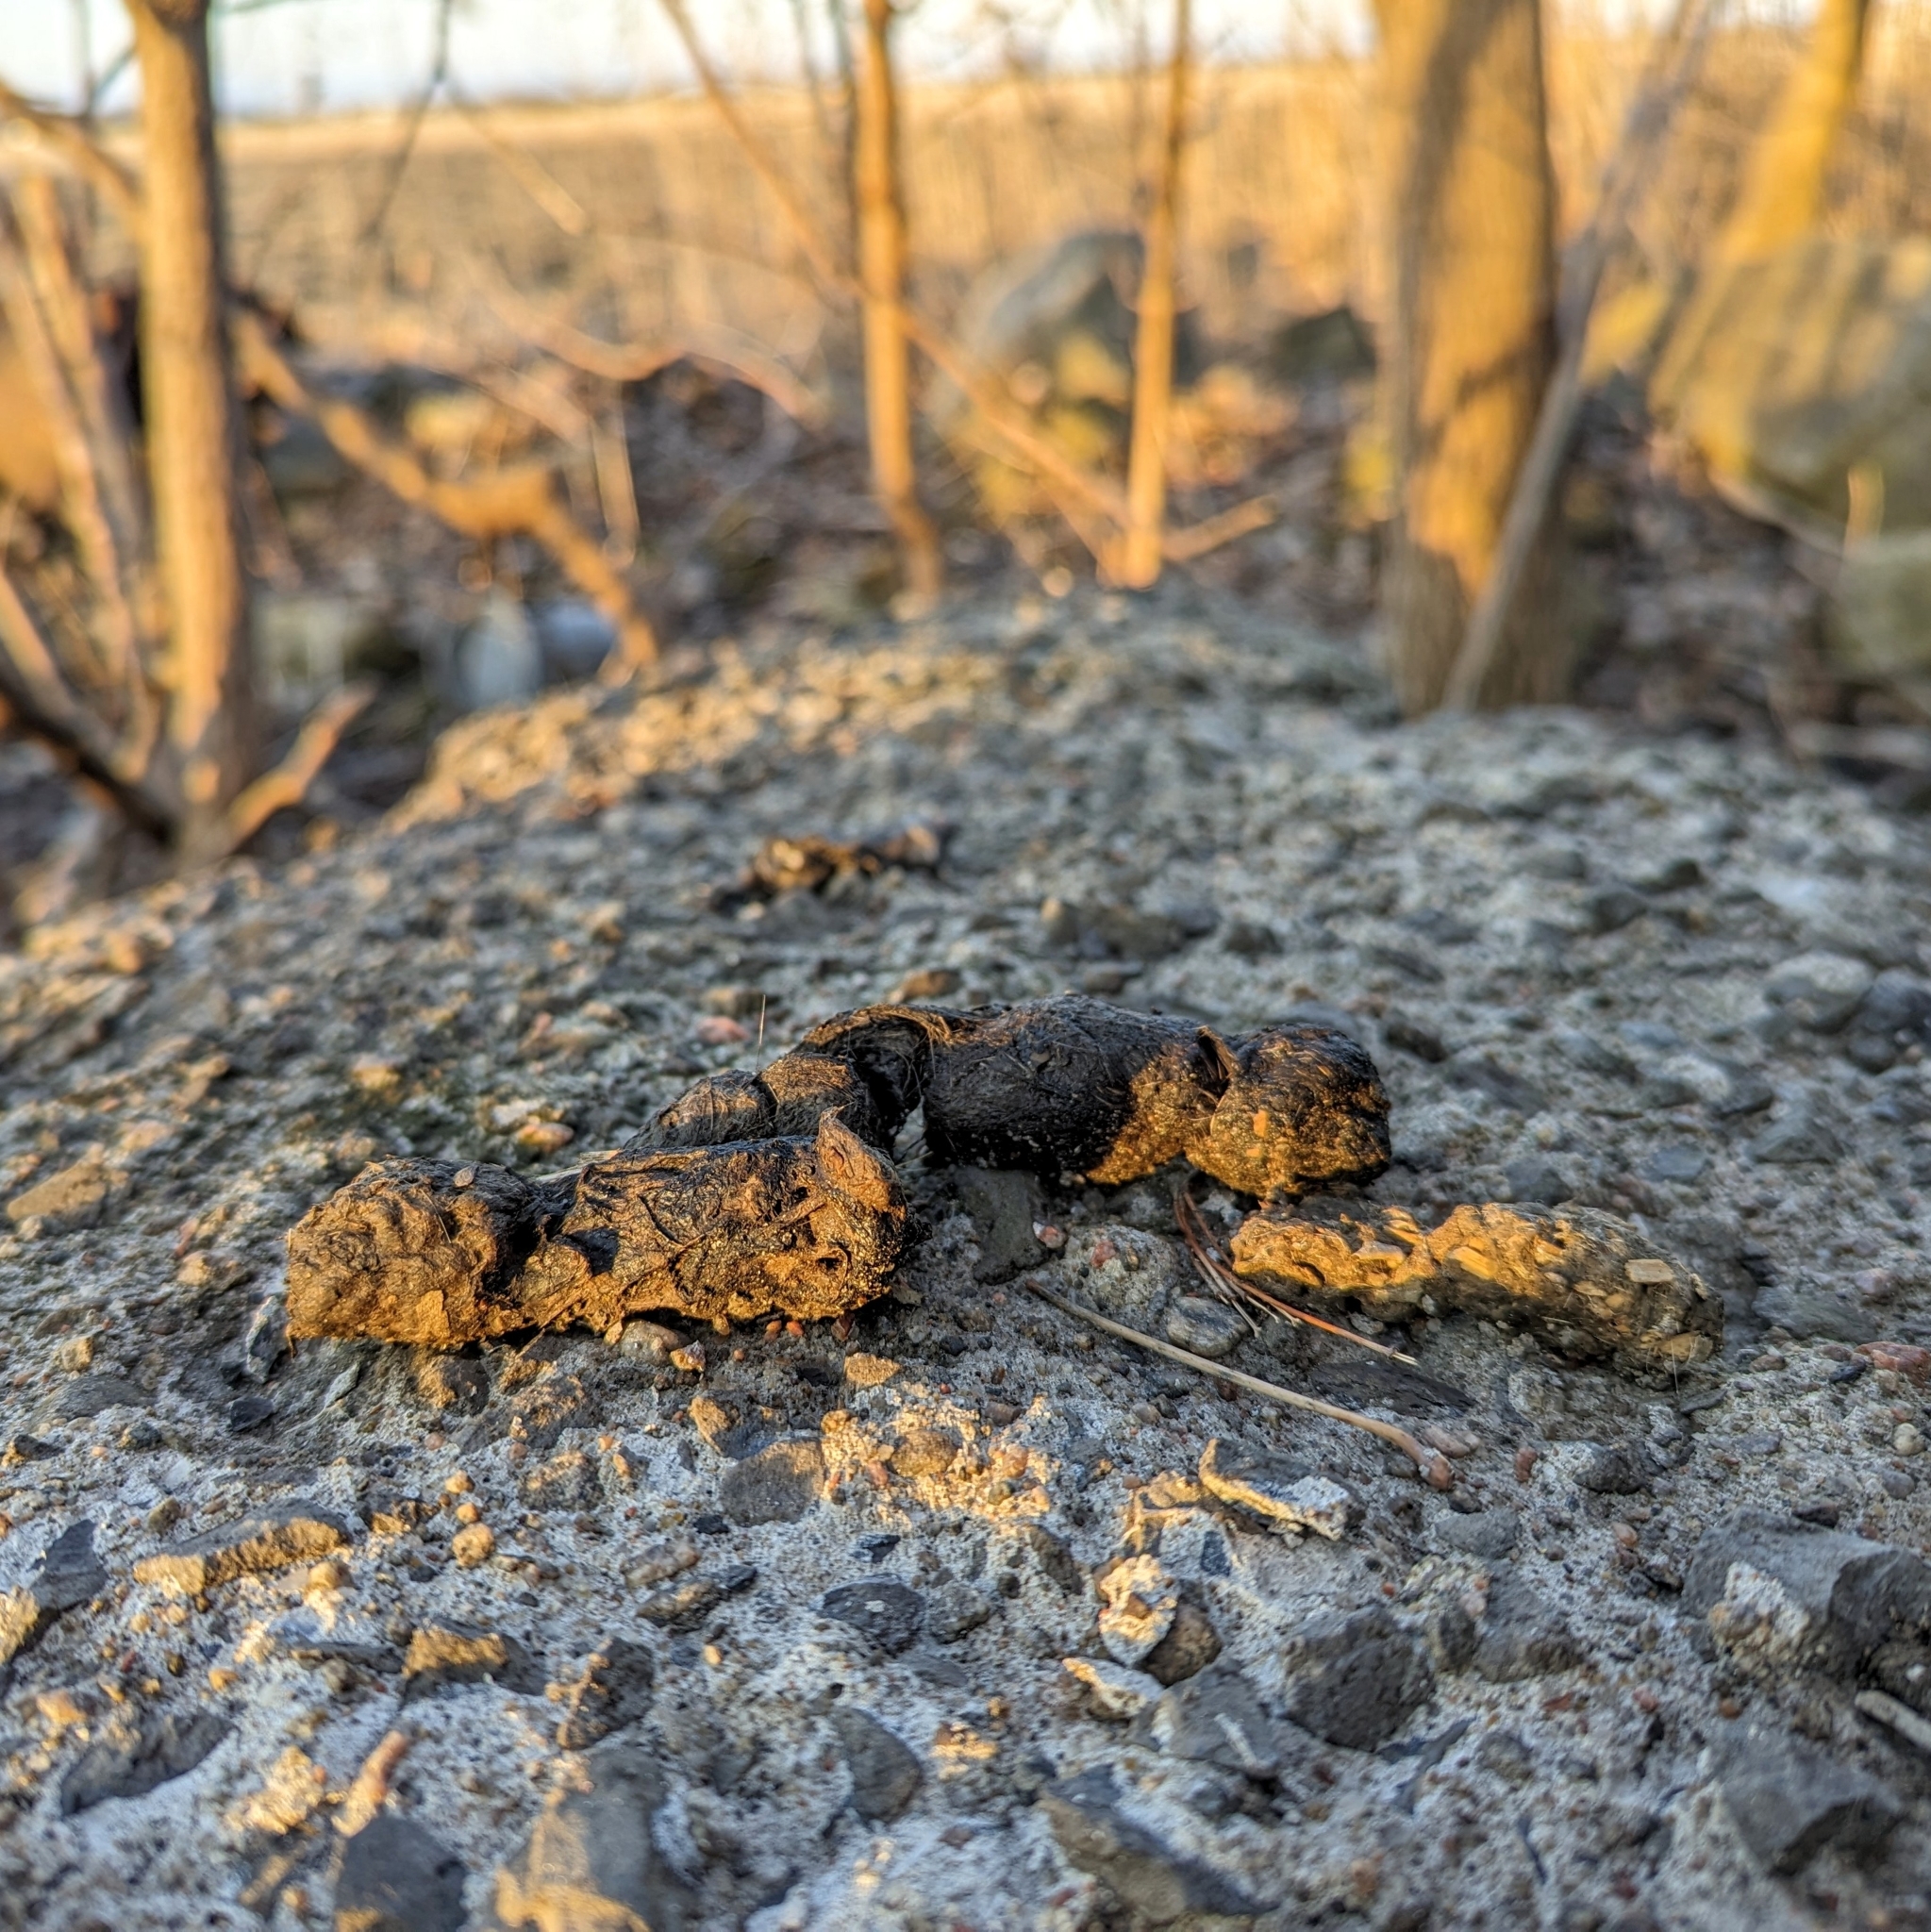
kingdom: Animalia
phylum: Chordata
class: Mammalia
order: Carnivora
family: Felidae
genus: Felis
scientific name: Felis catus
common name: Domestic cat
